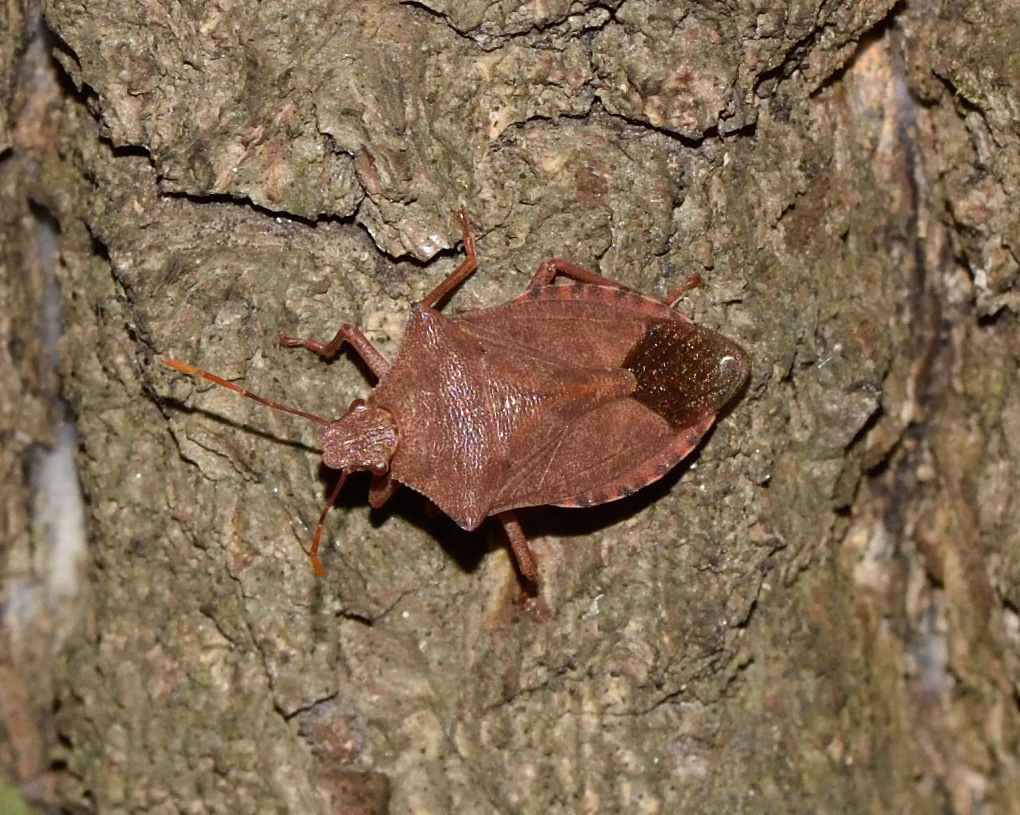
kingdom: Animalia
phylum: Arthropoda
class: Insecta
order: Hemiptera
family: Pentatomidae
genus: Arma
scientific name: Arma custos
